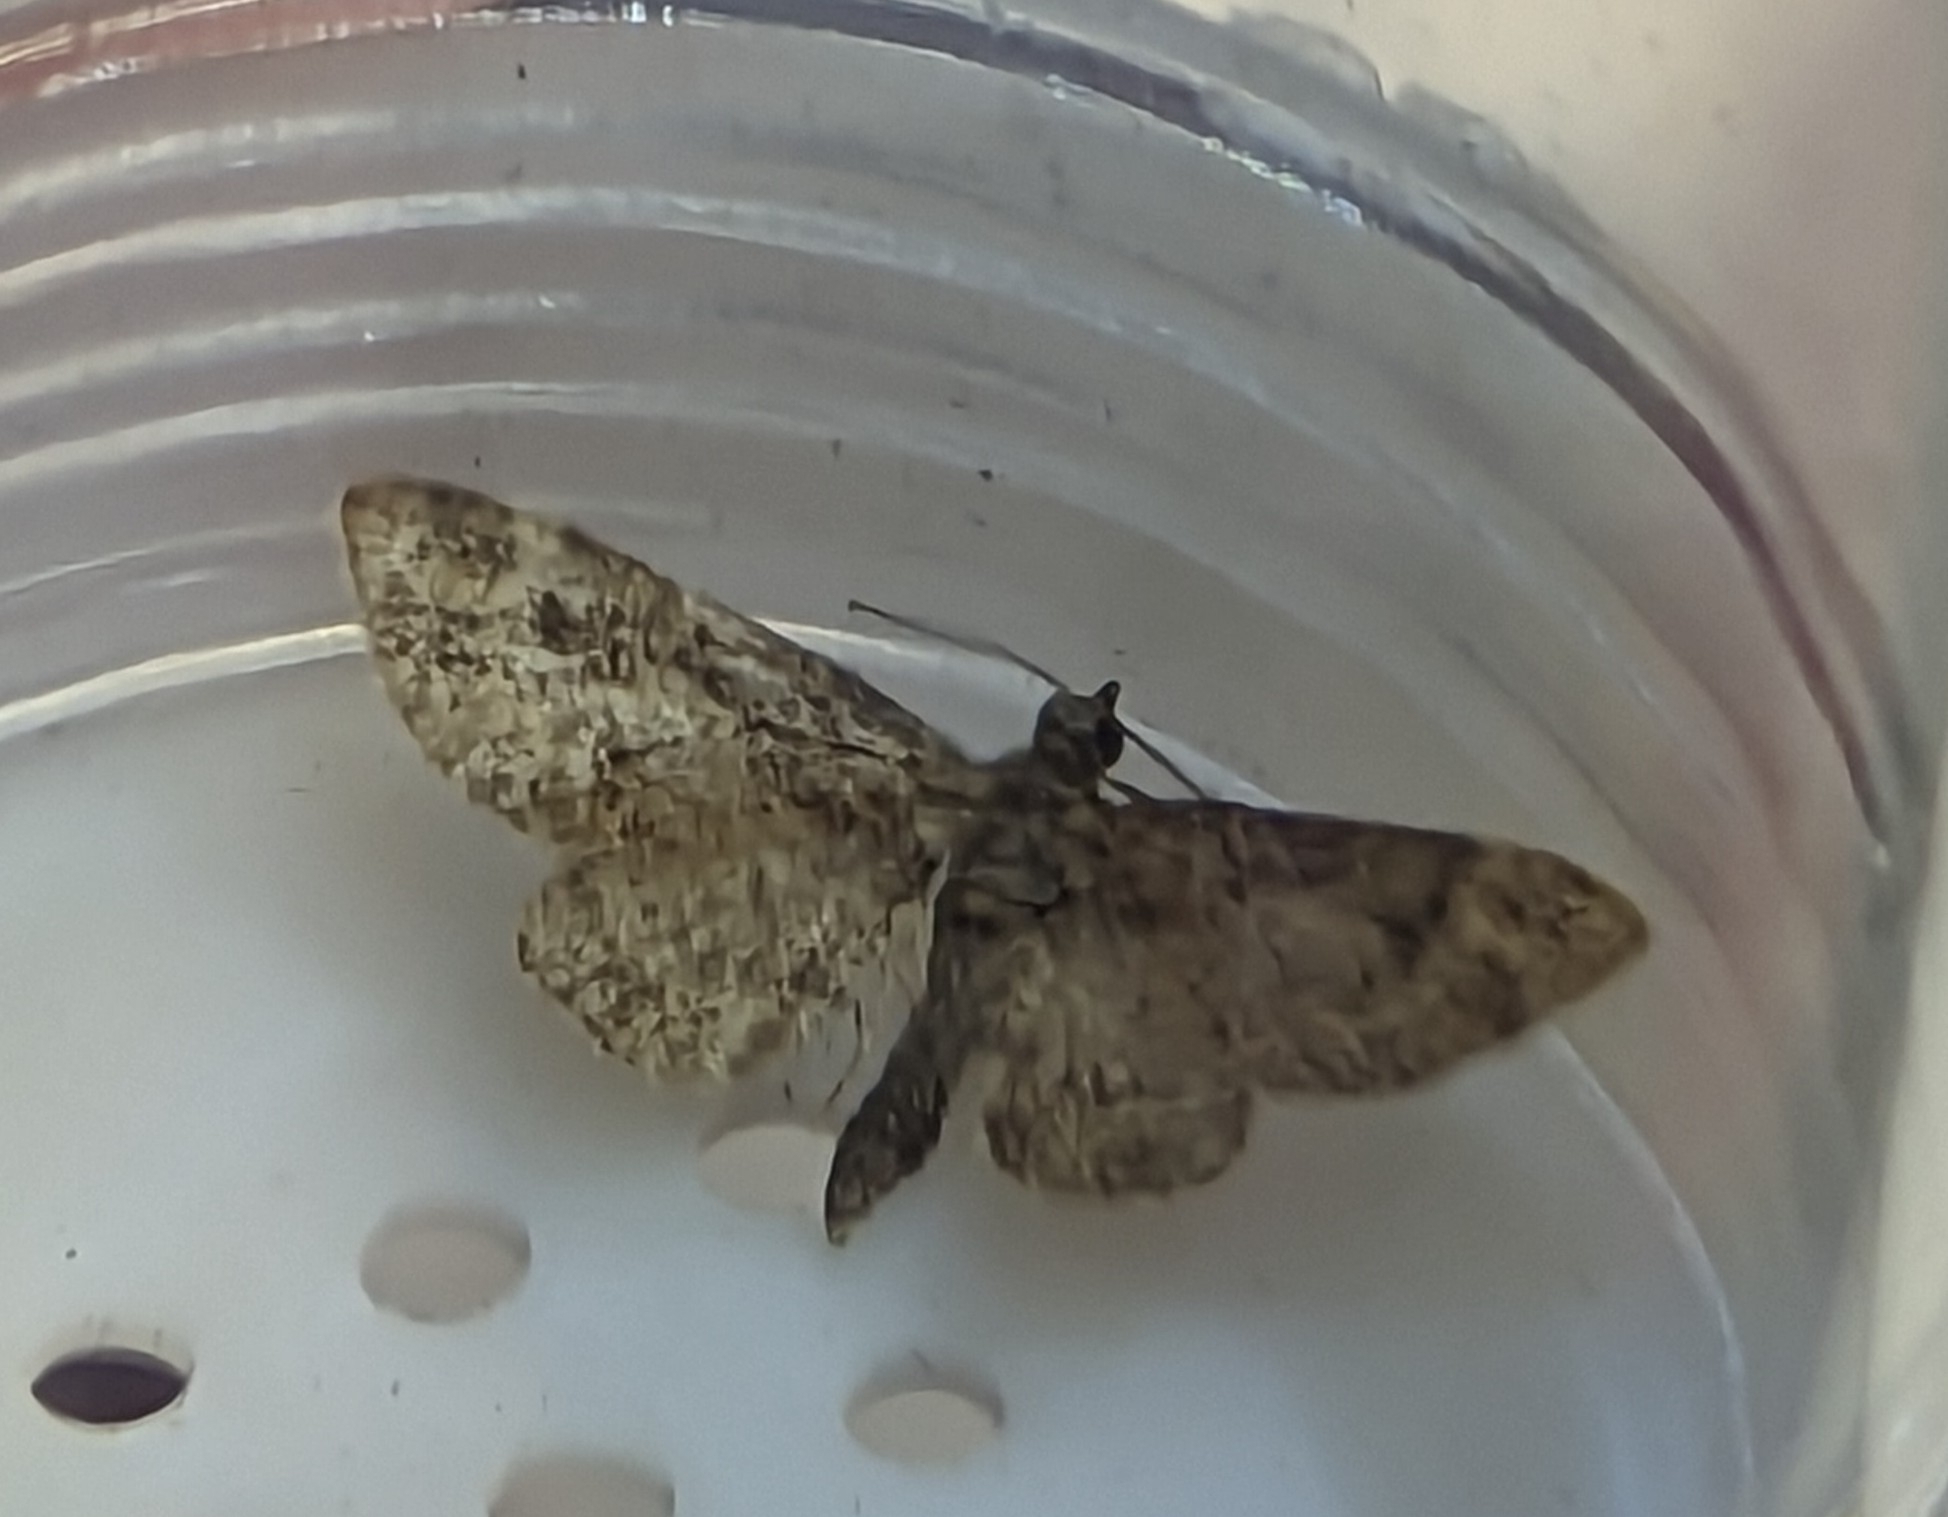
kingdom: Animalia
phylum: Arthropoda
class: Insecta
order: Lepidoptera
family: Geometridae
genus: Gymnoscelis
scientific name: Gymnoscelis rufifasciata
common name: Double-striped pug
